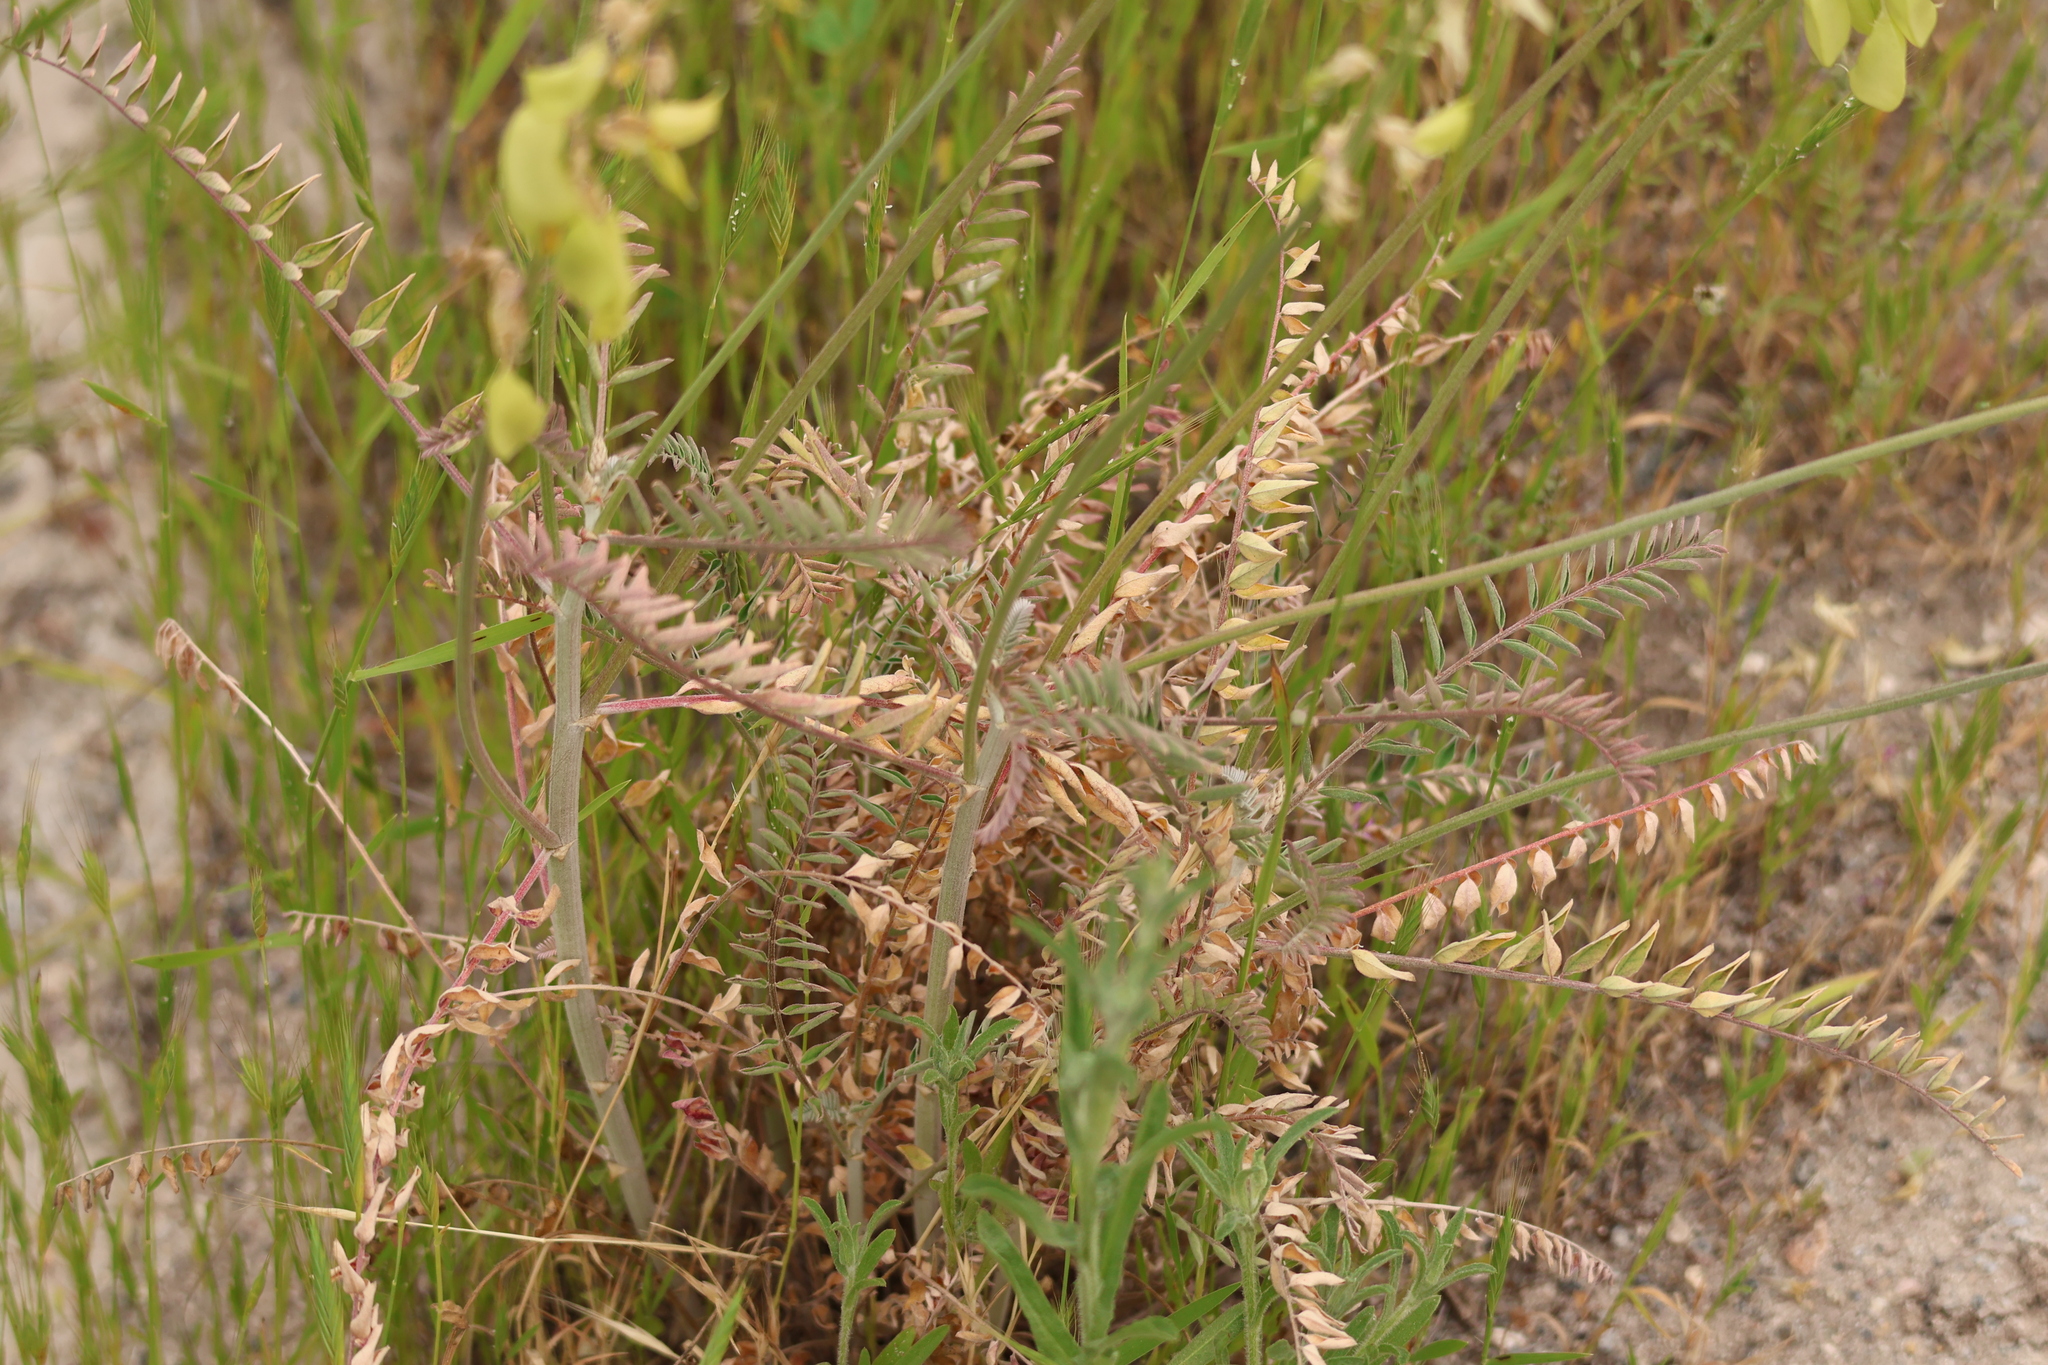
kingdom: Plantae
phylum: Tracheophyta
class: Magnoliopsida
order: Fabales
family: Fabaceae
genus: Astragalus
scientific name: Astragalus trichopodus
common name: Santa barbara milk-vetch
